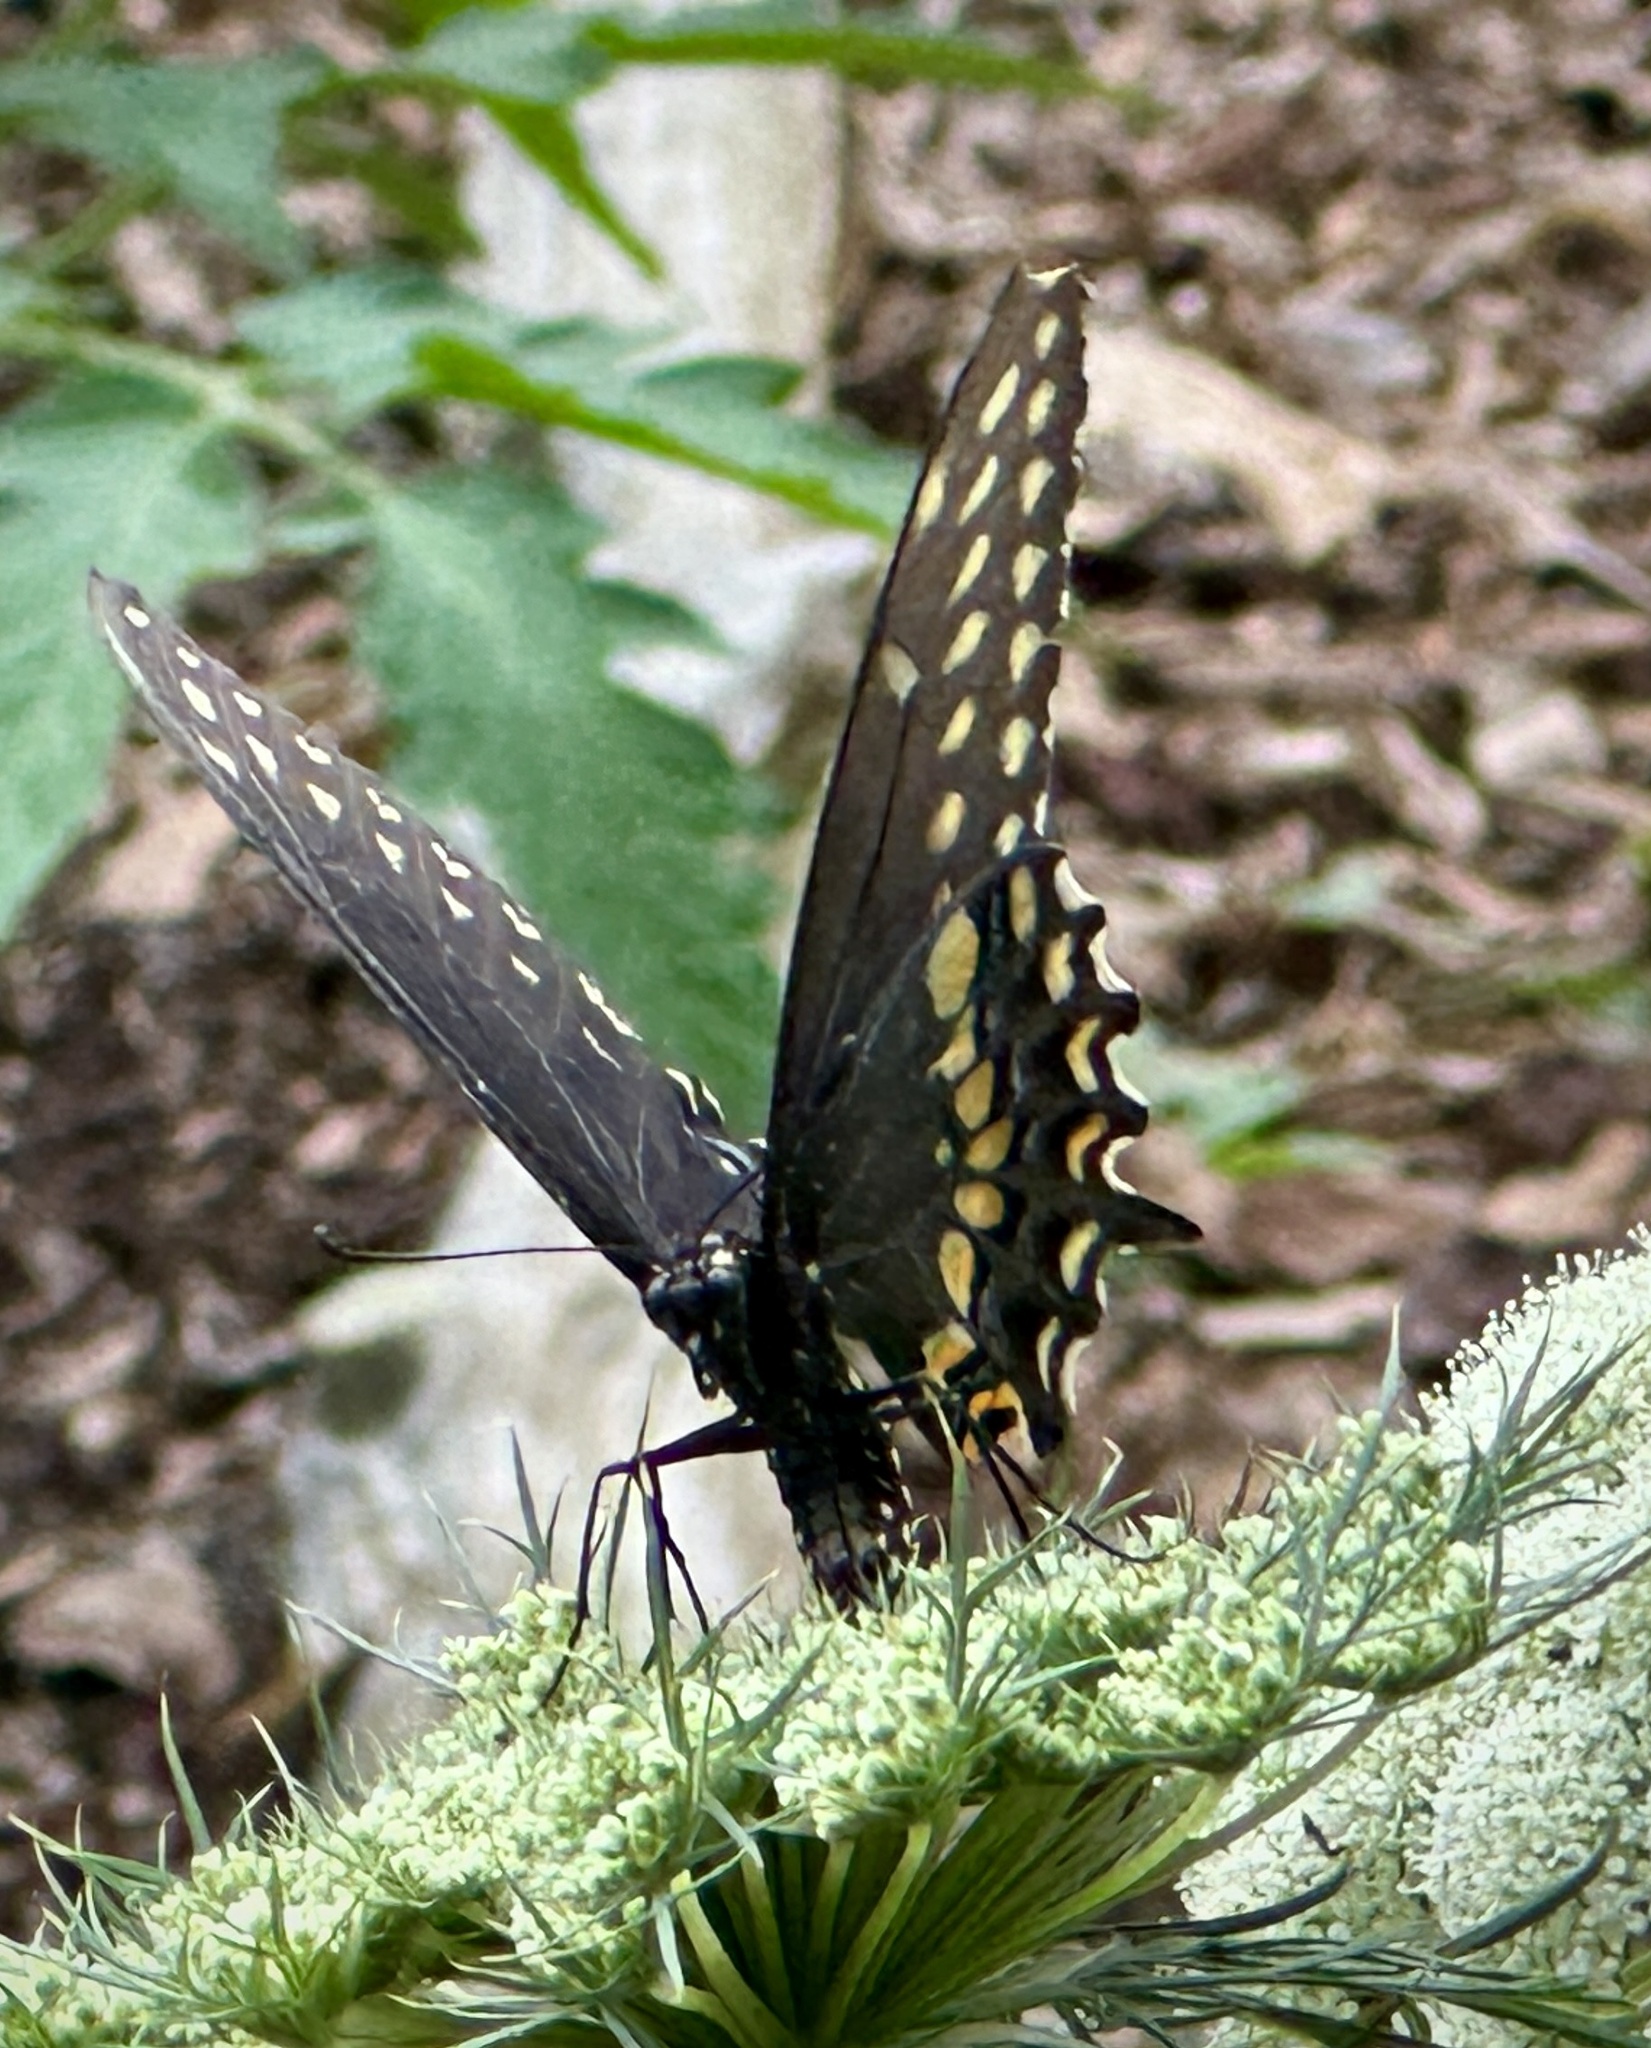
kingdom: Animalia
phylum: Arthropoda
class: Insecta
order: Lepidoptera
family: Papilionidae
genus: Papilio
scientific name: Papilio polyxenes
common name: Black swallowtail
